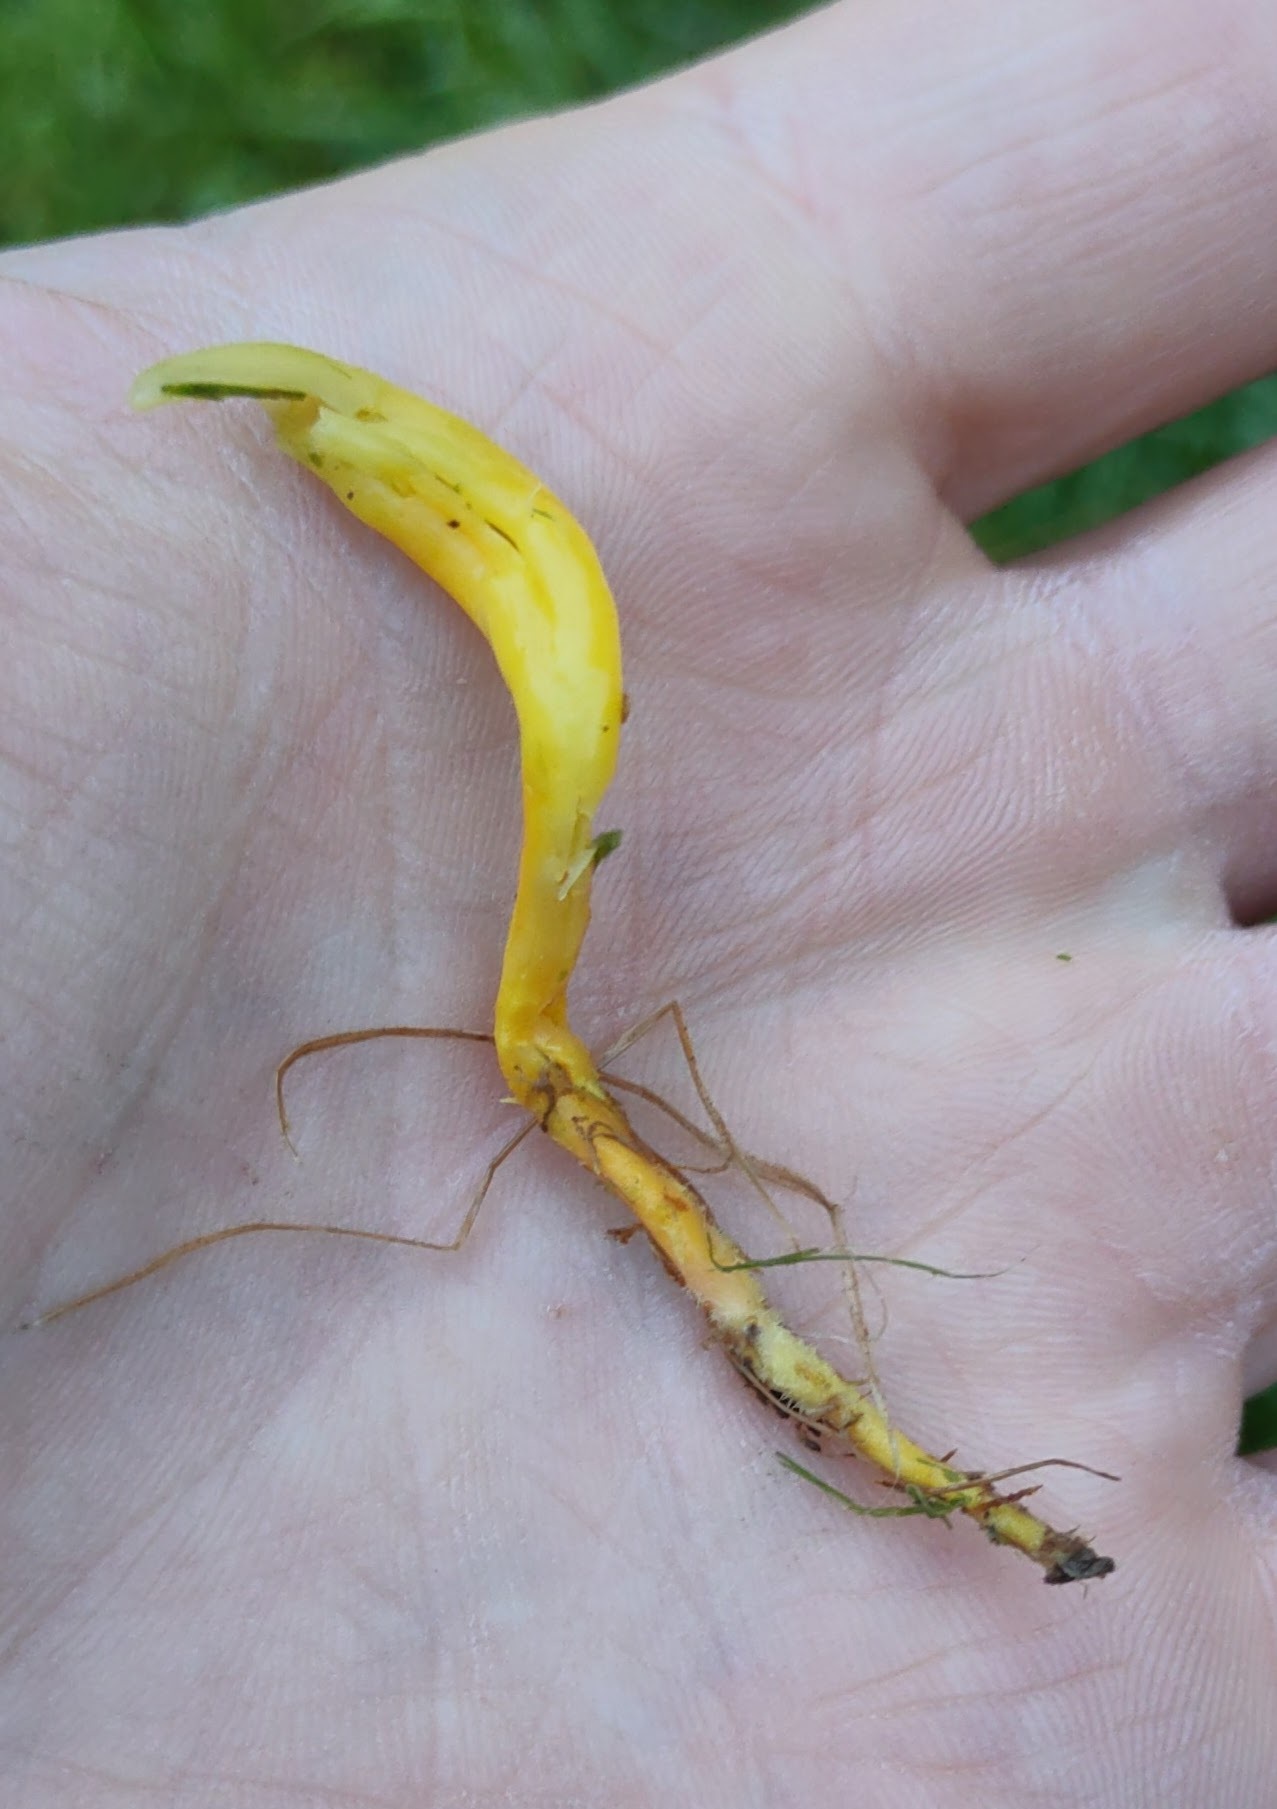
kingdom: Fungi
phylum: Basidiomycota
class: Agaricomycetes
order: Agaricales
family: Clavariaceae
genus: Clavulinopsis
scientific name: Clavulinopsis helvola
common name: Yellow club
